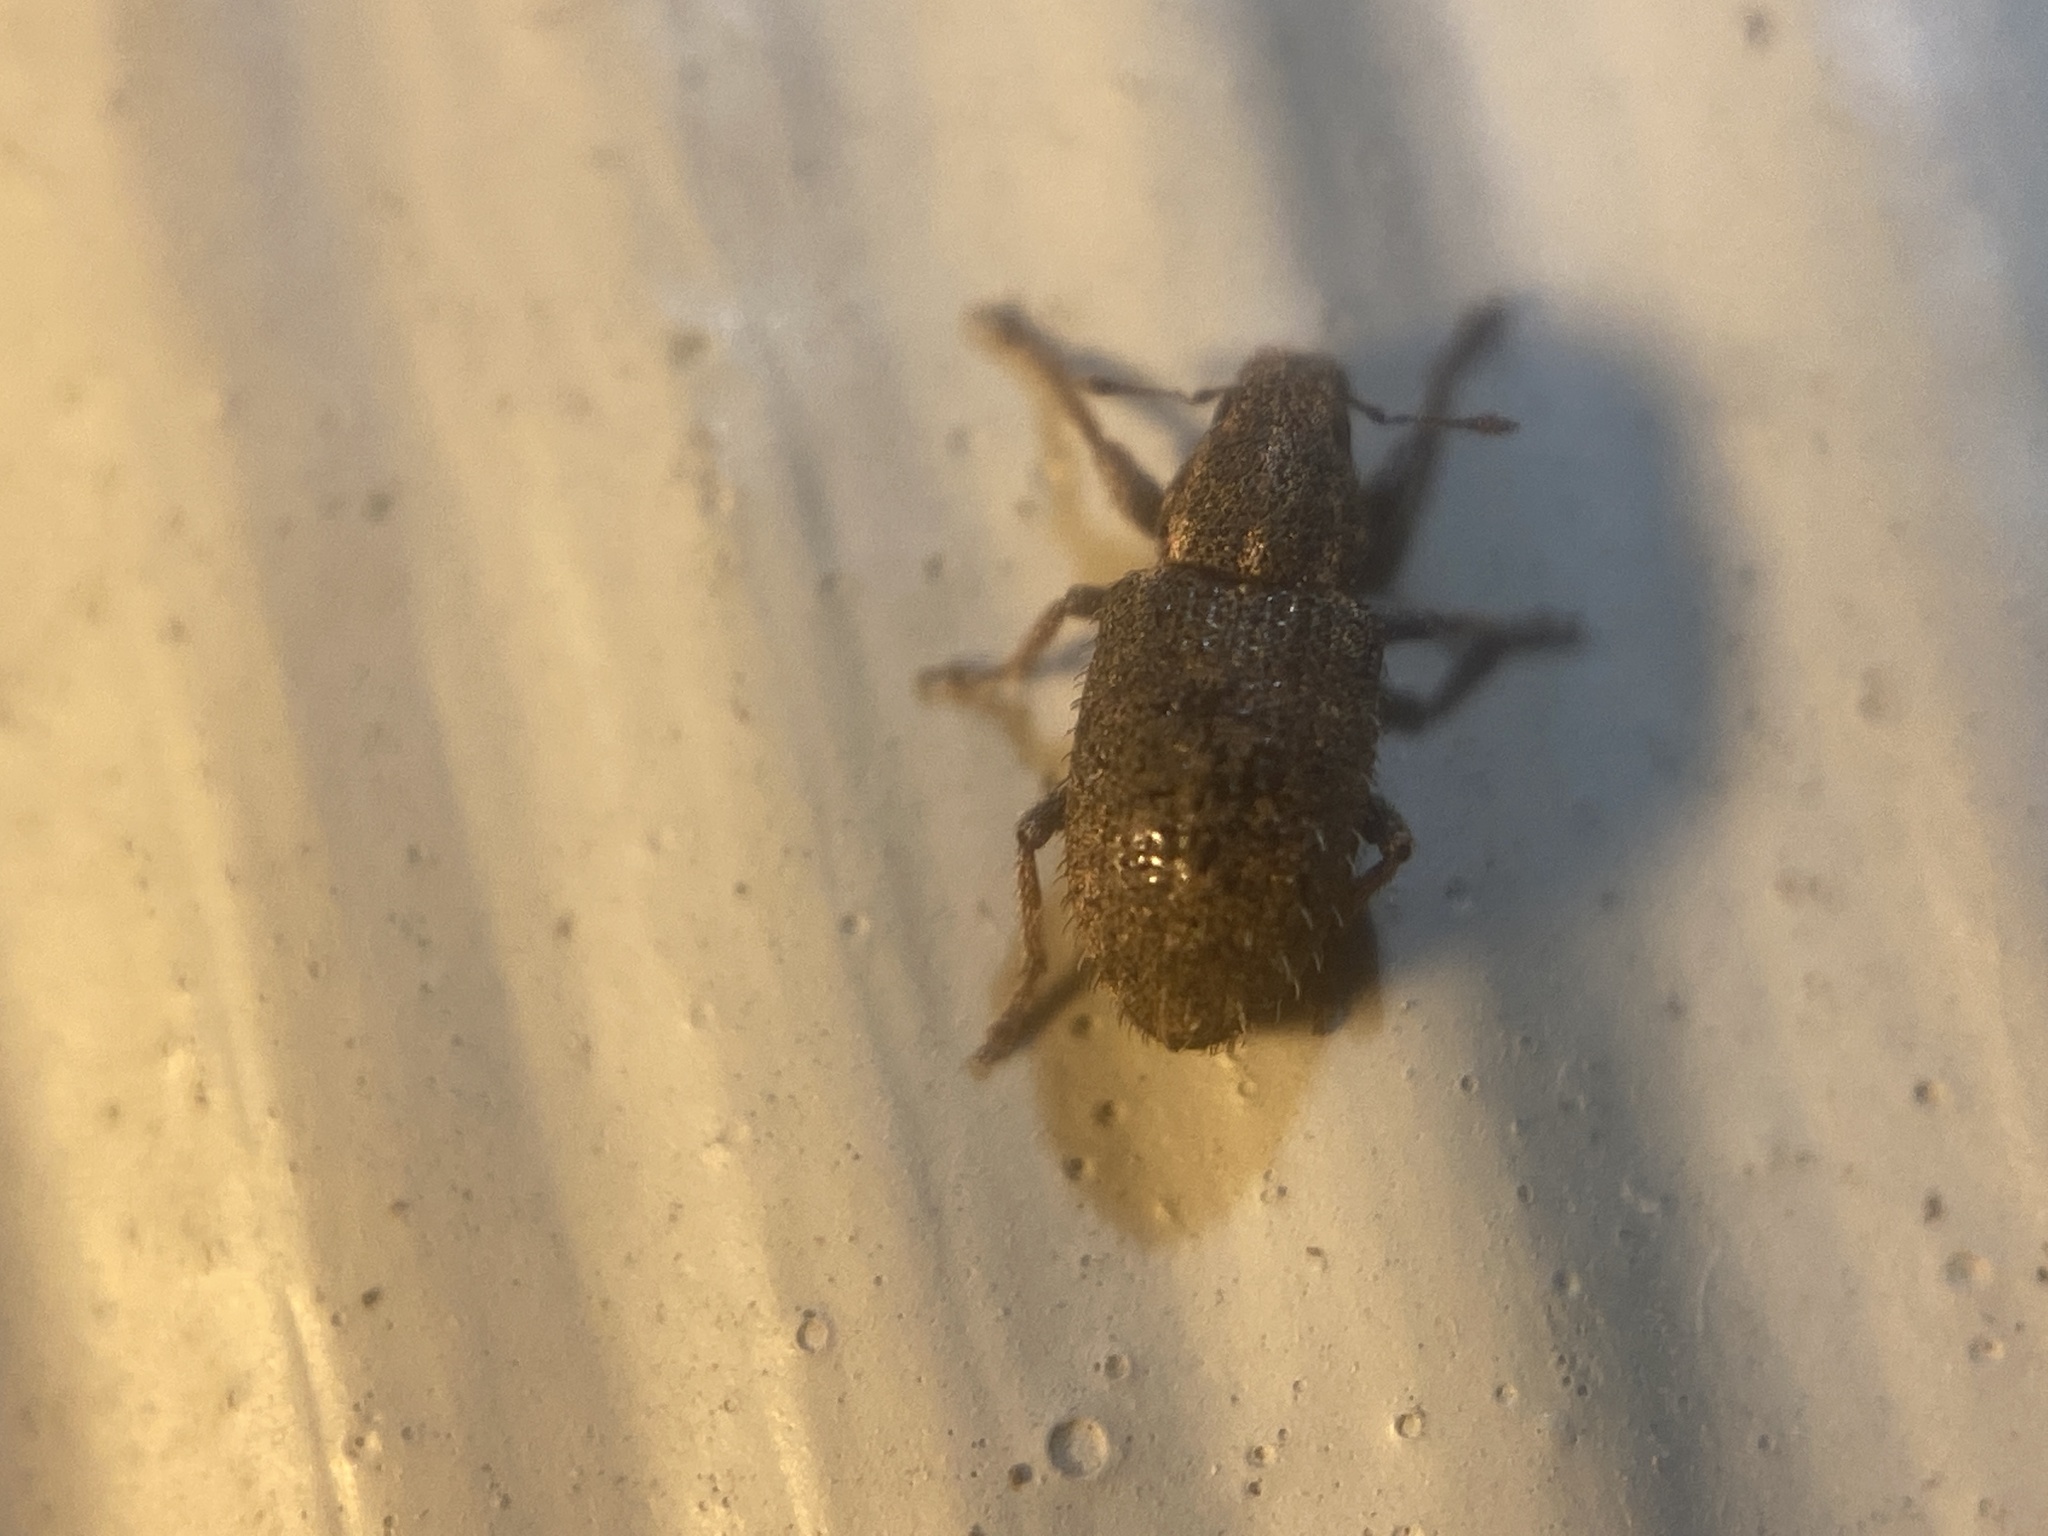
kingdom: Animalia
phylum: Arthropoda
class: Insecta
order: Coleoptera
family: Curculionidae
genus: Sitona
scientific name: Sitona hispidulus
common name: Clover weevil
